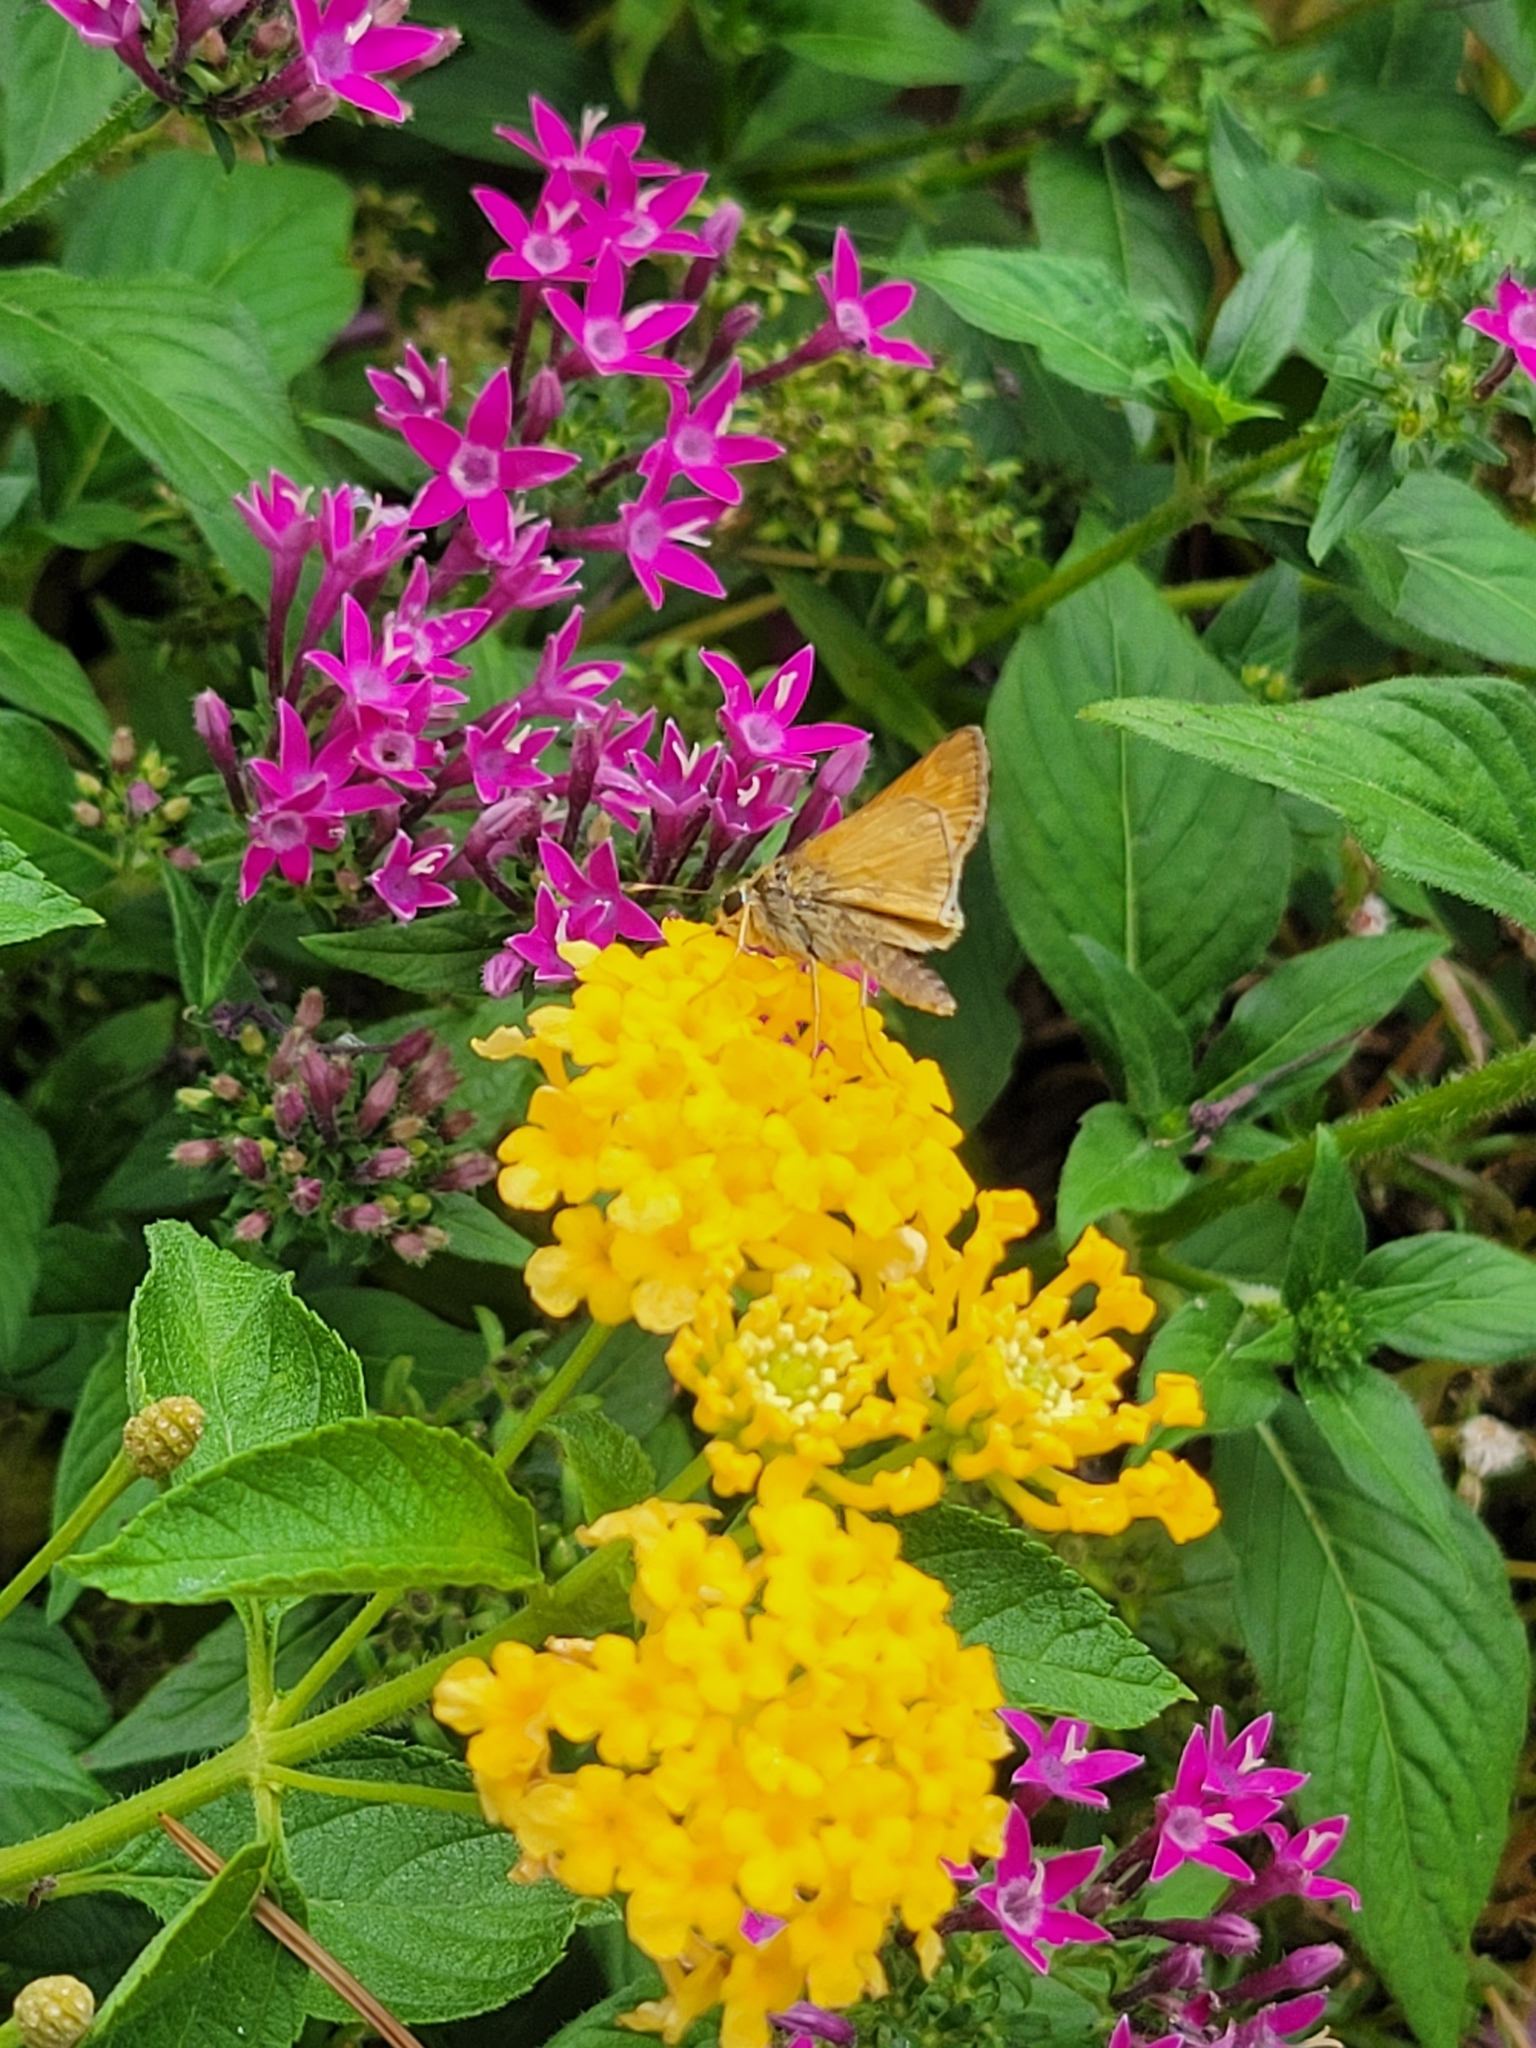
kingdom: Animalia
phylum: Arthropoda
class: Insecta
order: Lepidoptera
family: Hesperiidae
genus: Atalopedes
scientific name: Atalopedes
